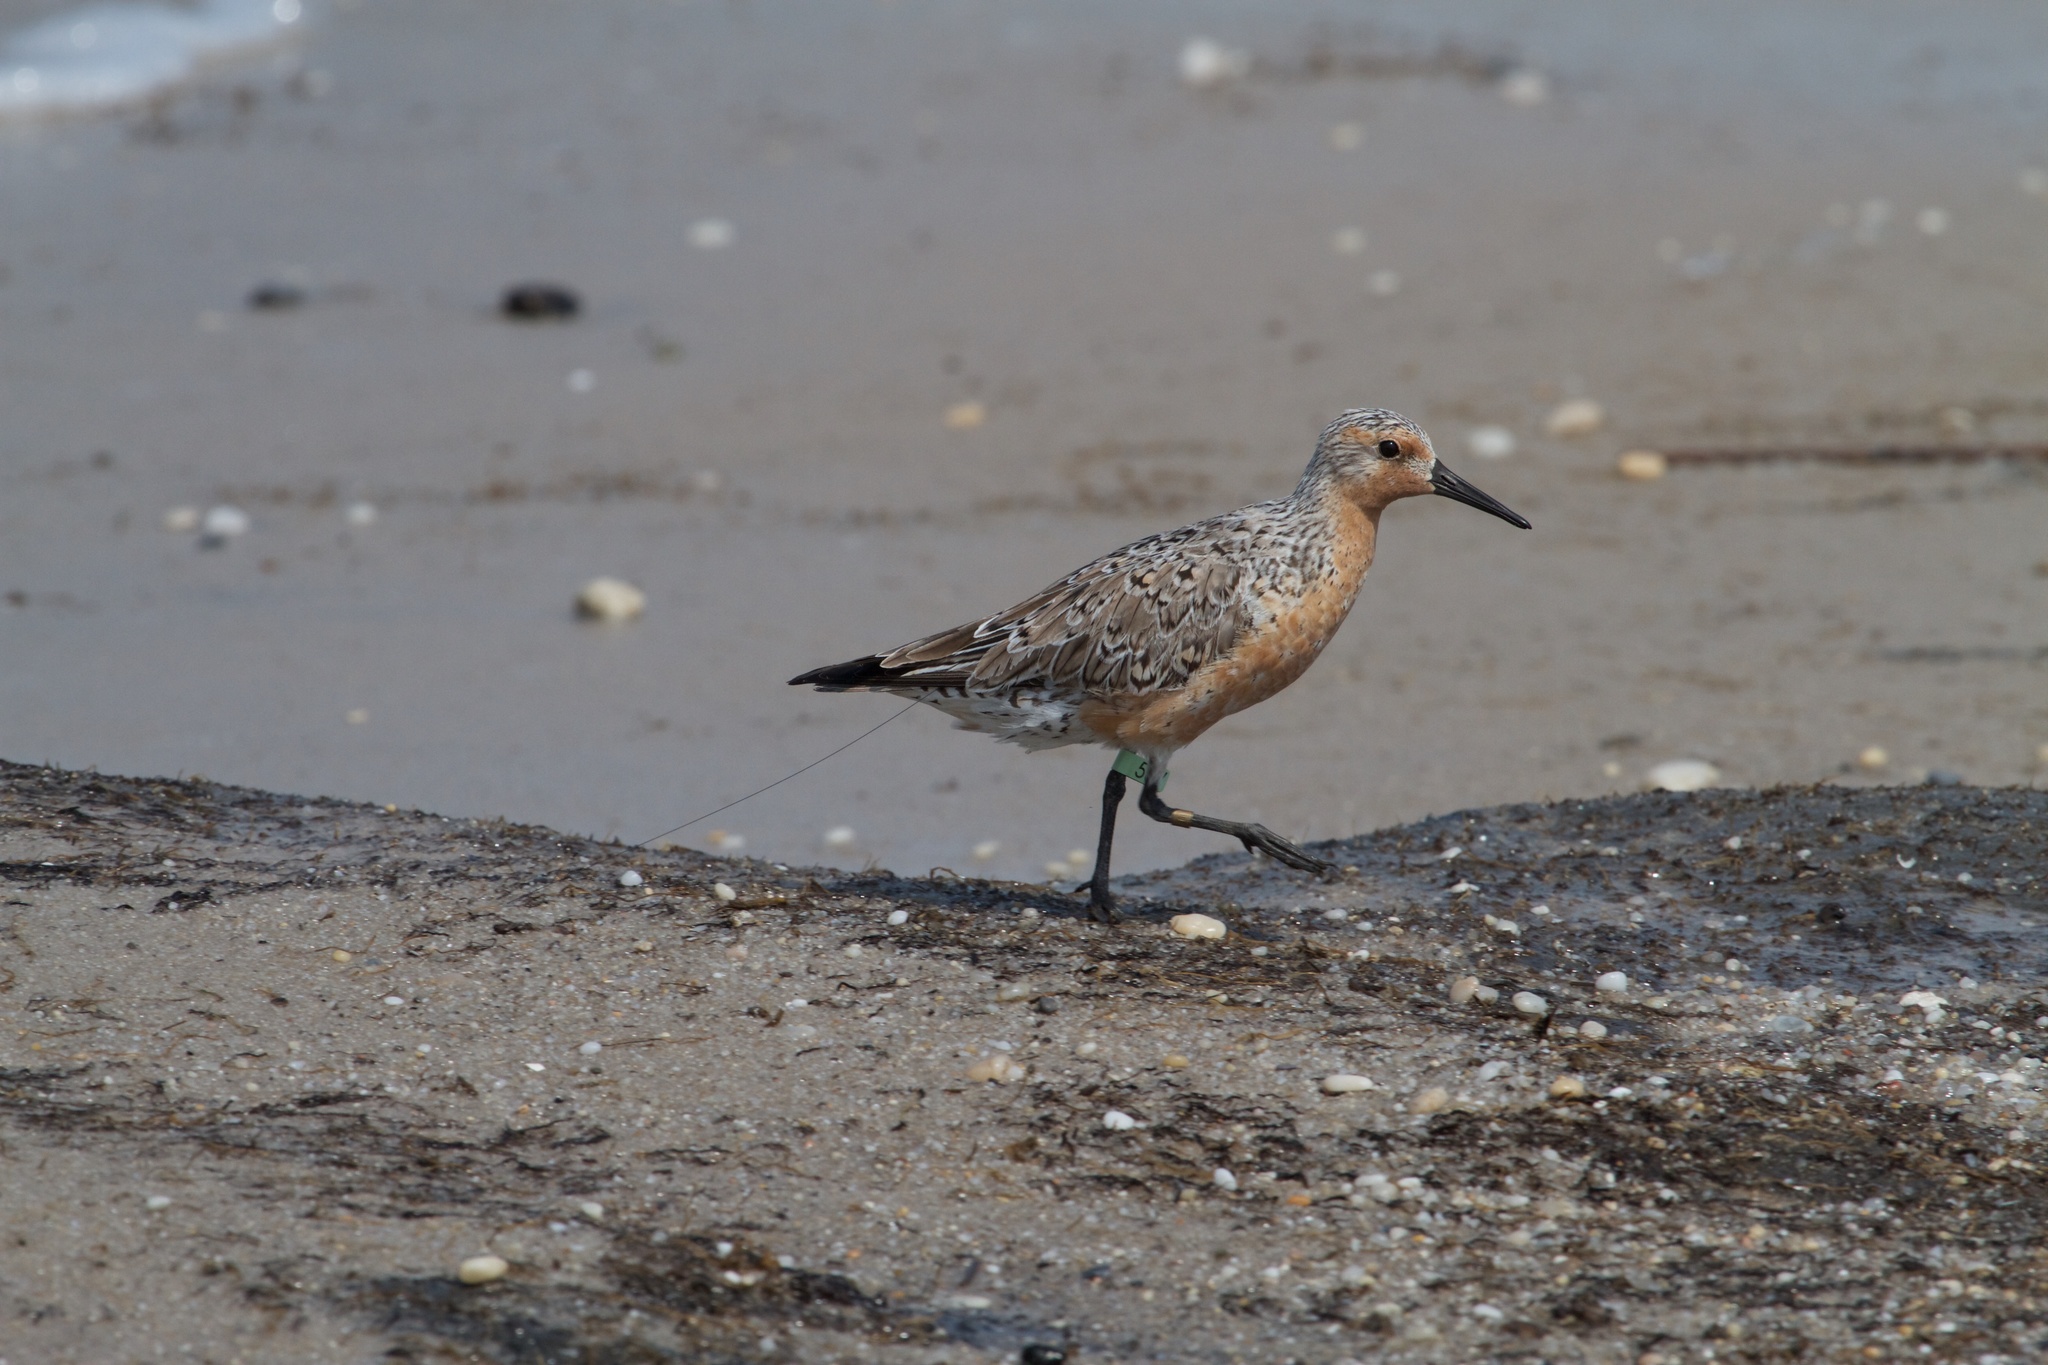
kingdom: Animalia
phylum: Chordata
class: Aves
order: Charadriiformes
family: Scolopacidae
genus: Calidris
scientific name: Calidris canutus
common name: Red knot
